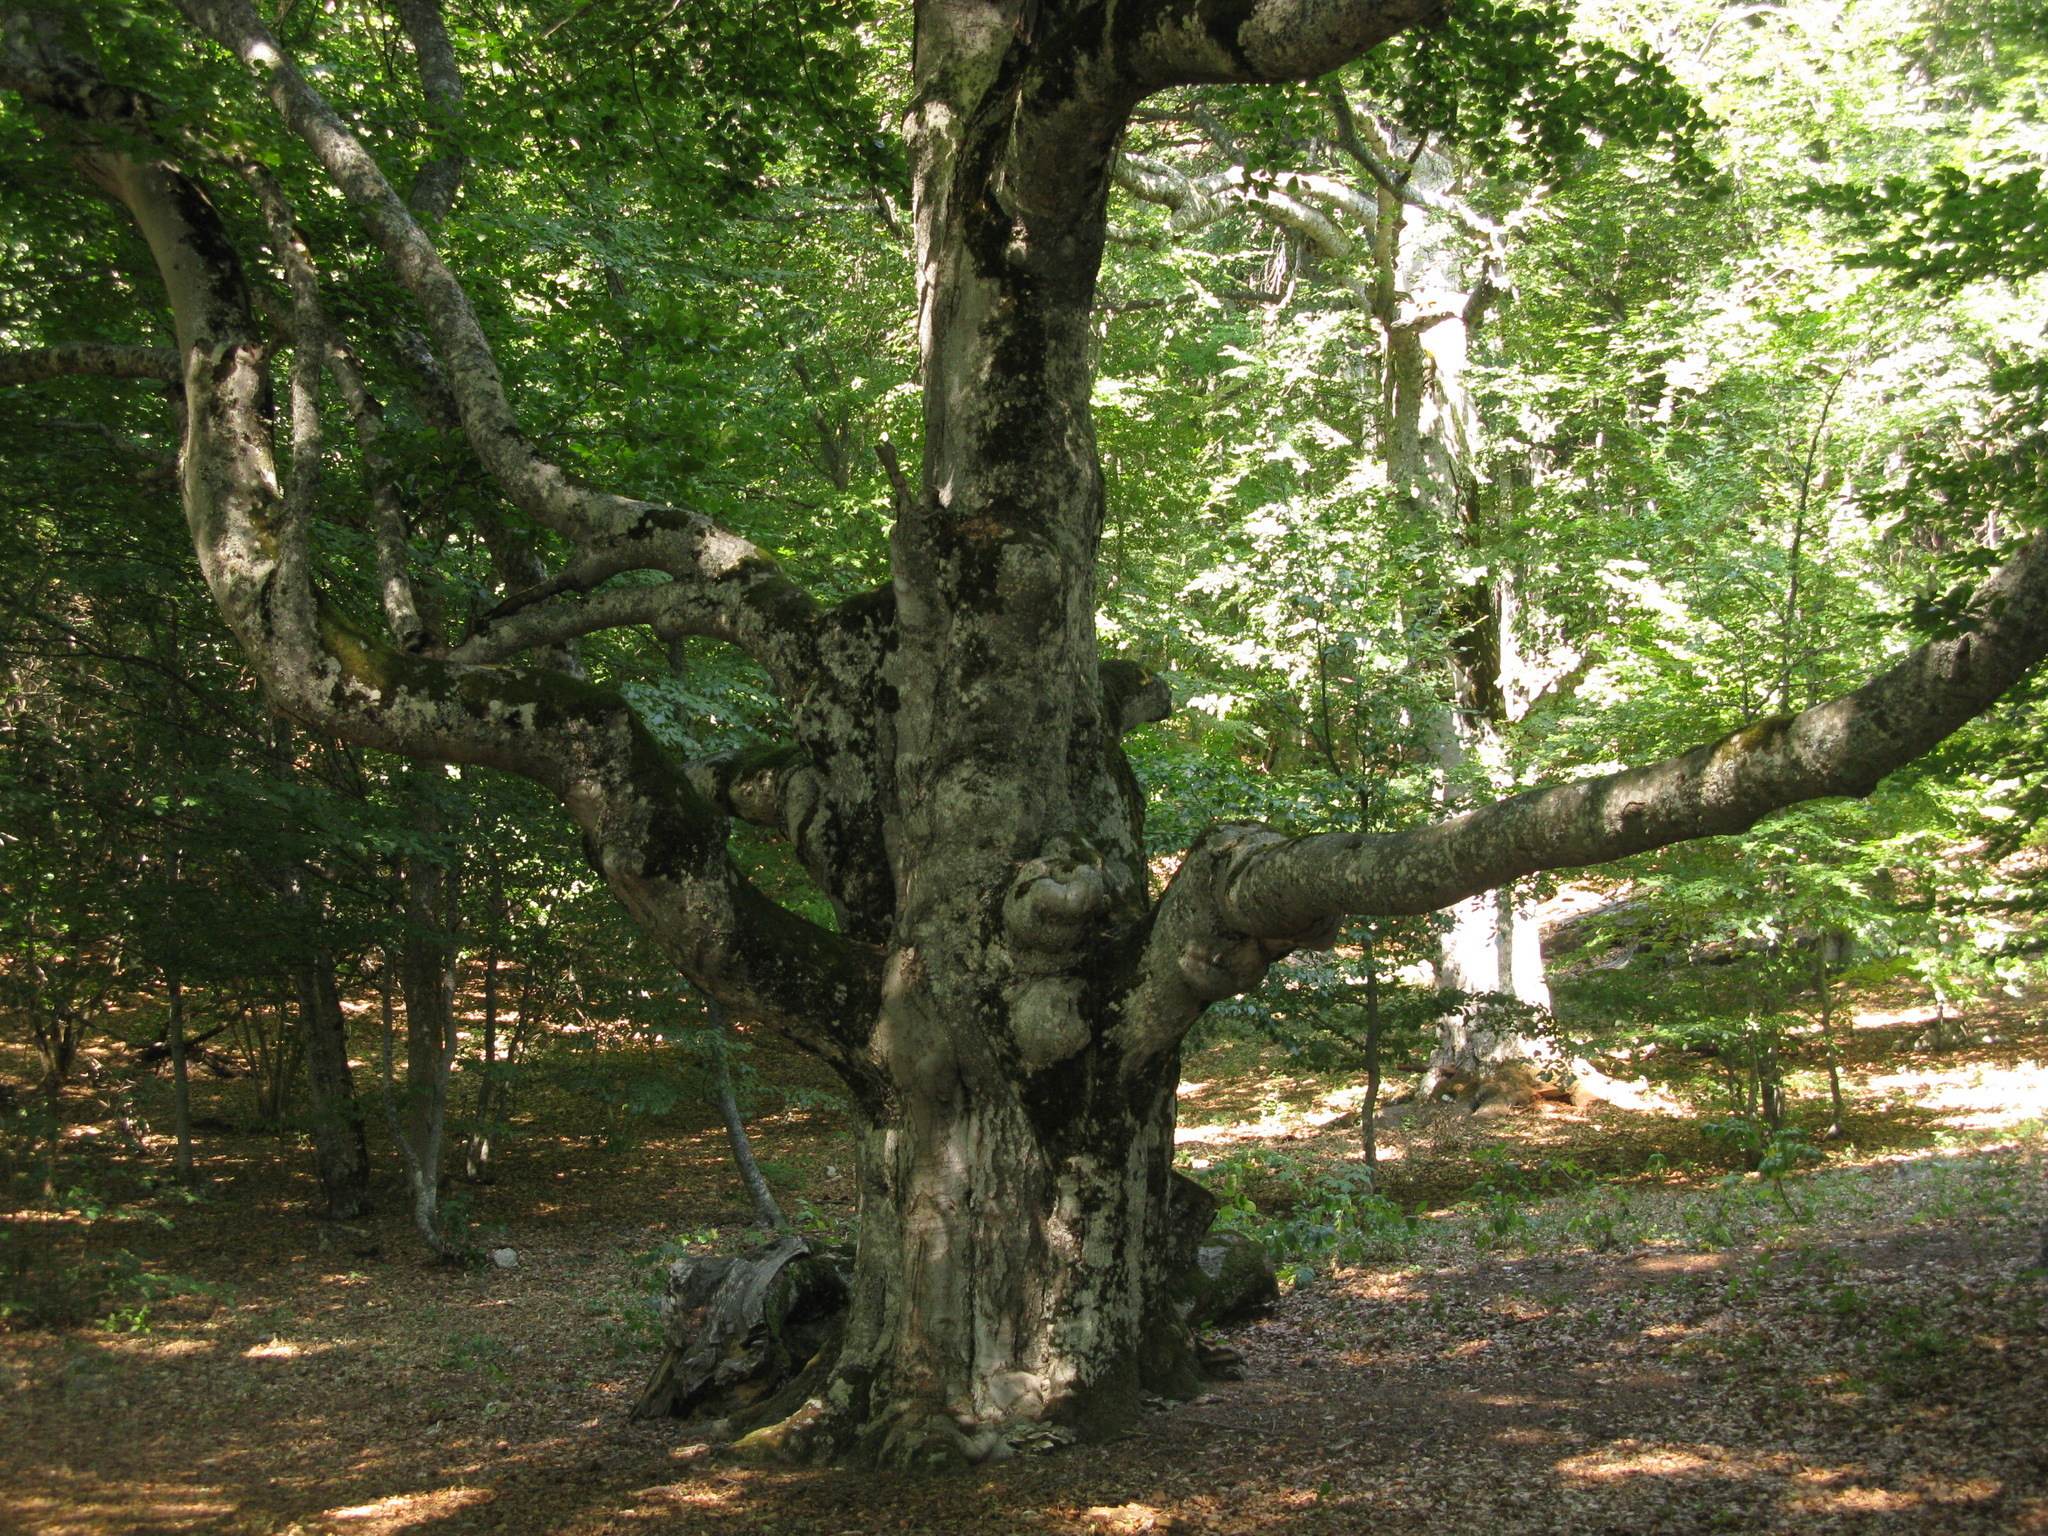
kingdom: Plantae
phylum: Tracheophyta
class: Magnoliopsida
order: Fagales
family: Fagaceae
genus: Fagus
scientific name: Fagus taurica
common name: Crimean beech
